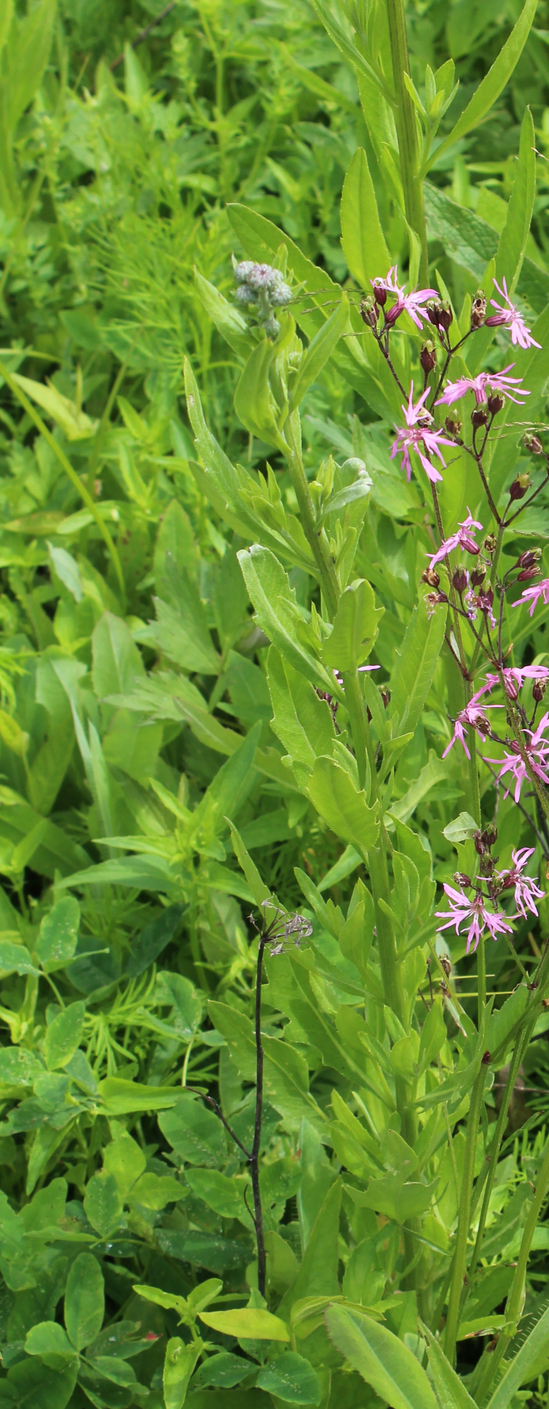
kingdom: Plantae
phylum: Tracheophyta
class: Magnoliopsida
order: Asterales
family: Asteraceae
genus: Cirsium
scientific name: Cirsium arvense
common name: Creeping thistle
